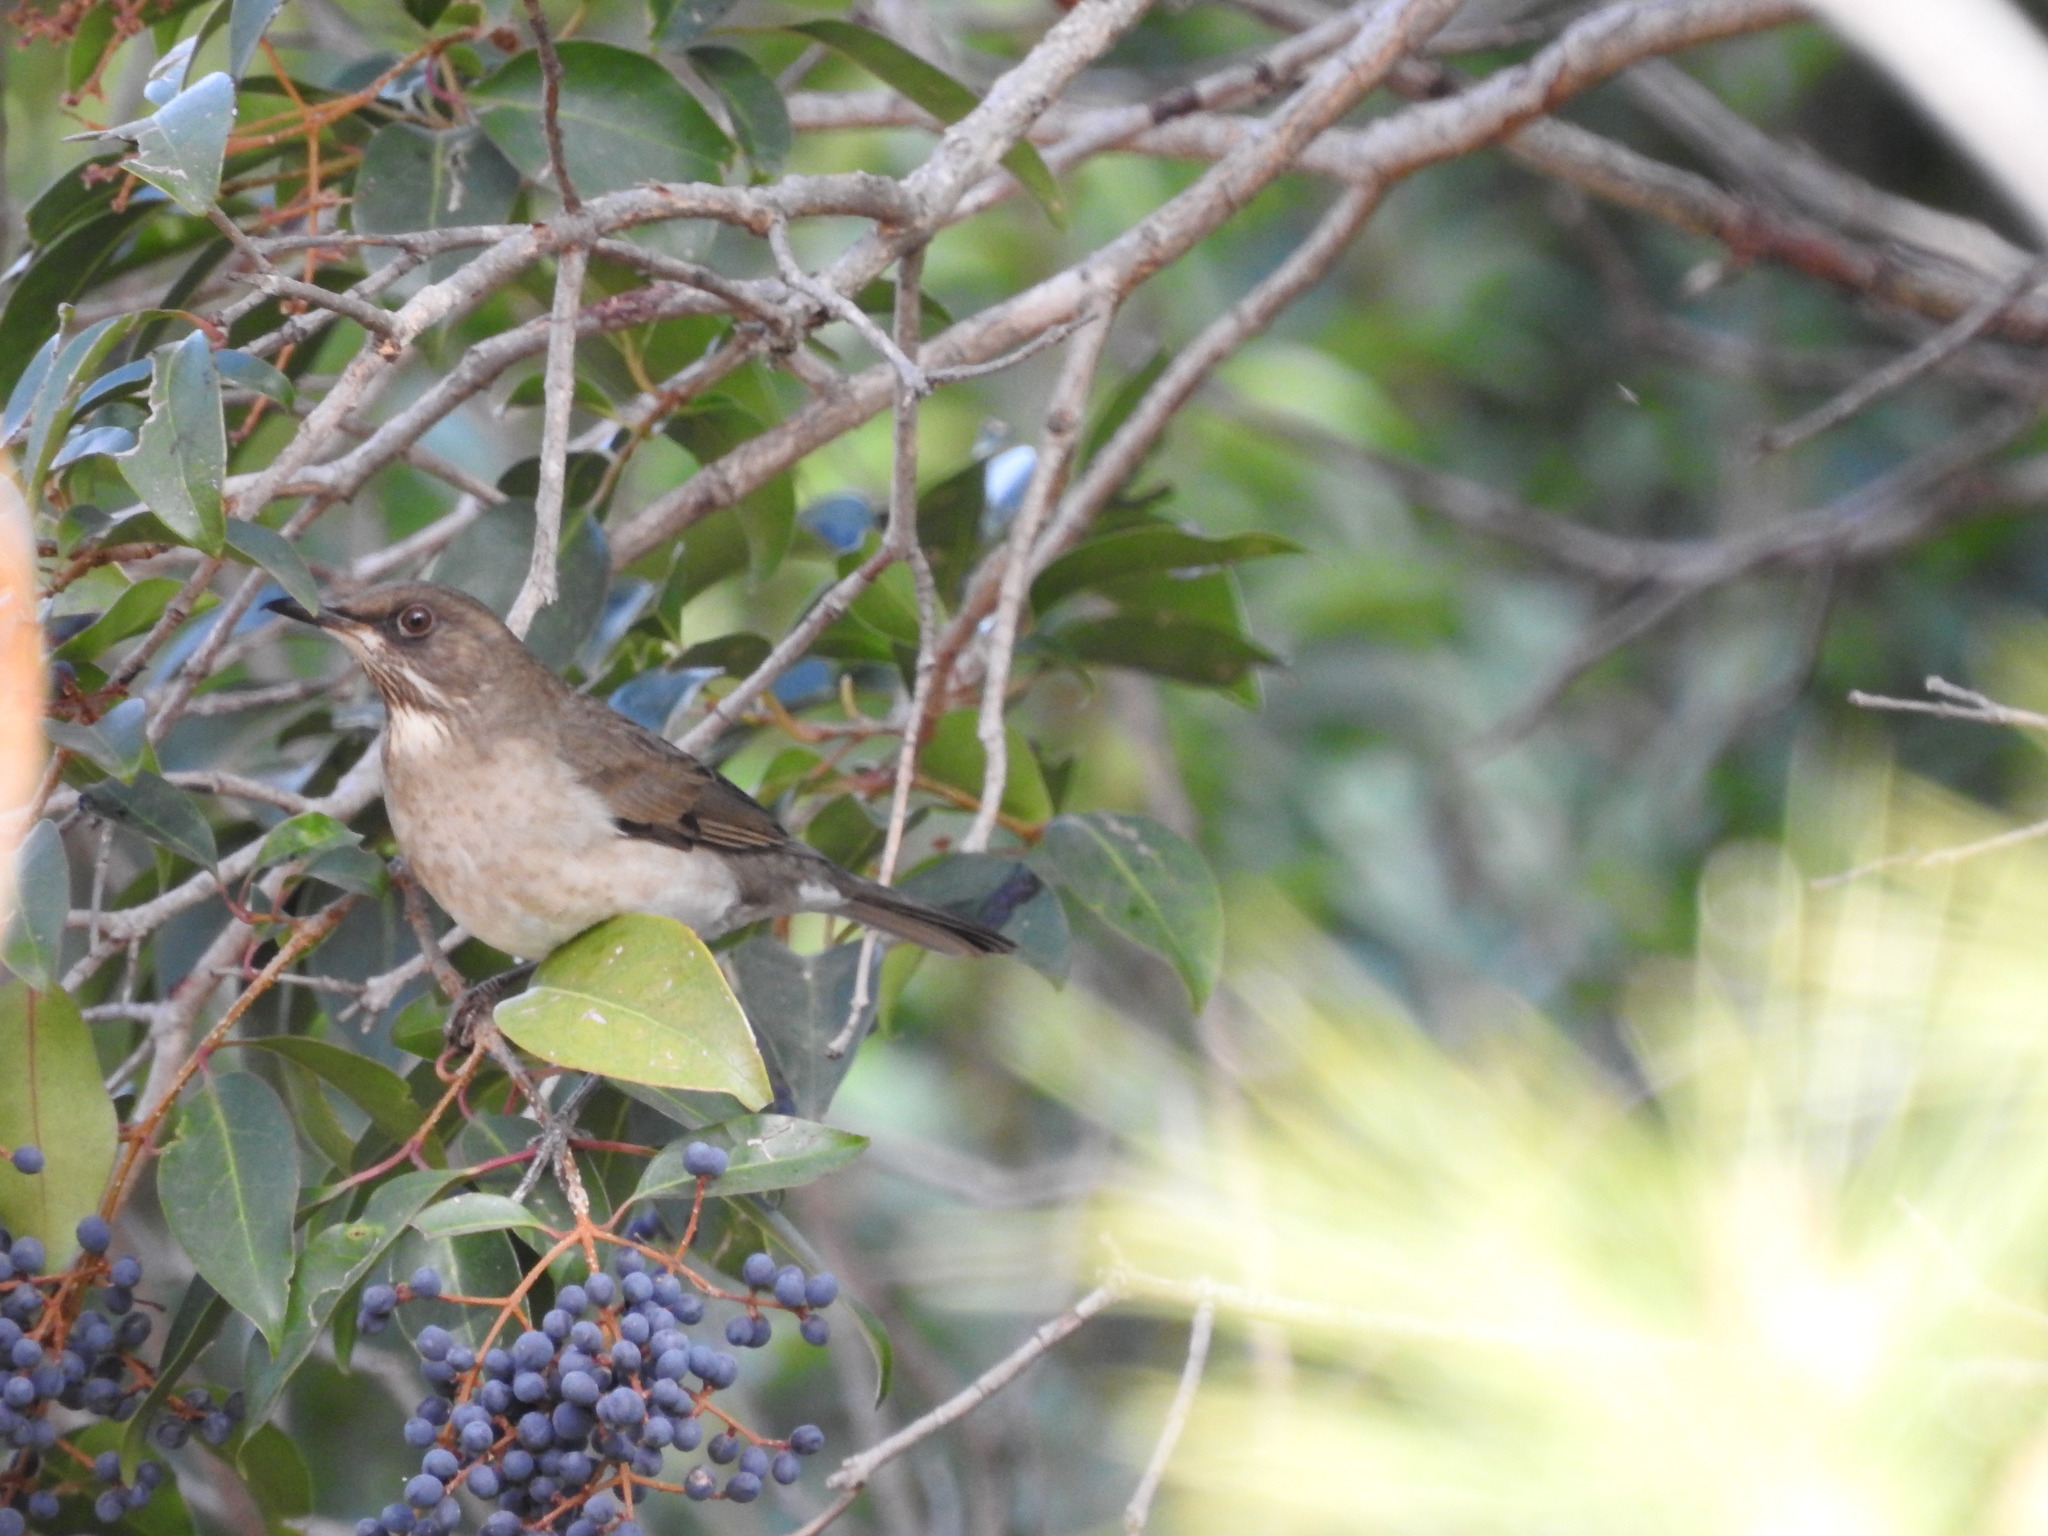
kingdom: Animalia
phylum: Chordata
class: Aves
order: Passeriformes
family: Turdidae
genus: Turdus
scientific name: Turdus amaurochalinus
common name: Creamy-bellied thrush
